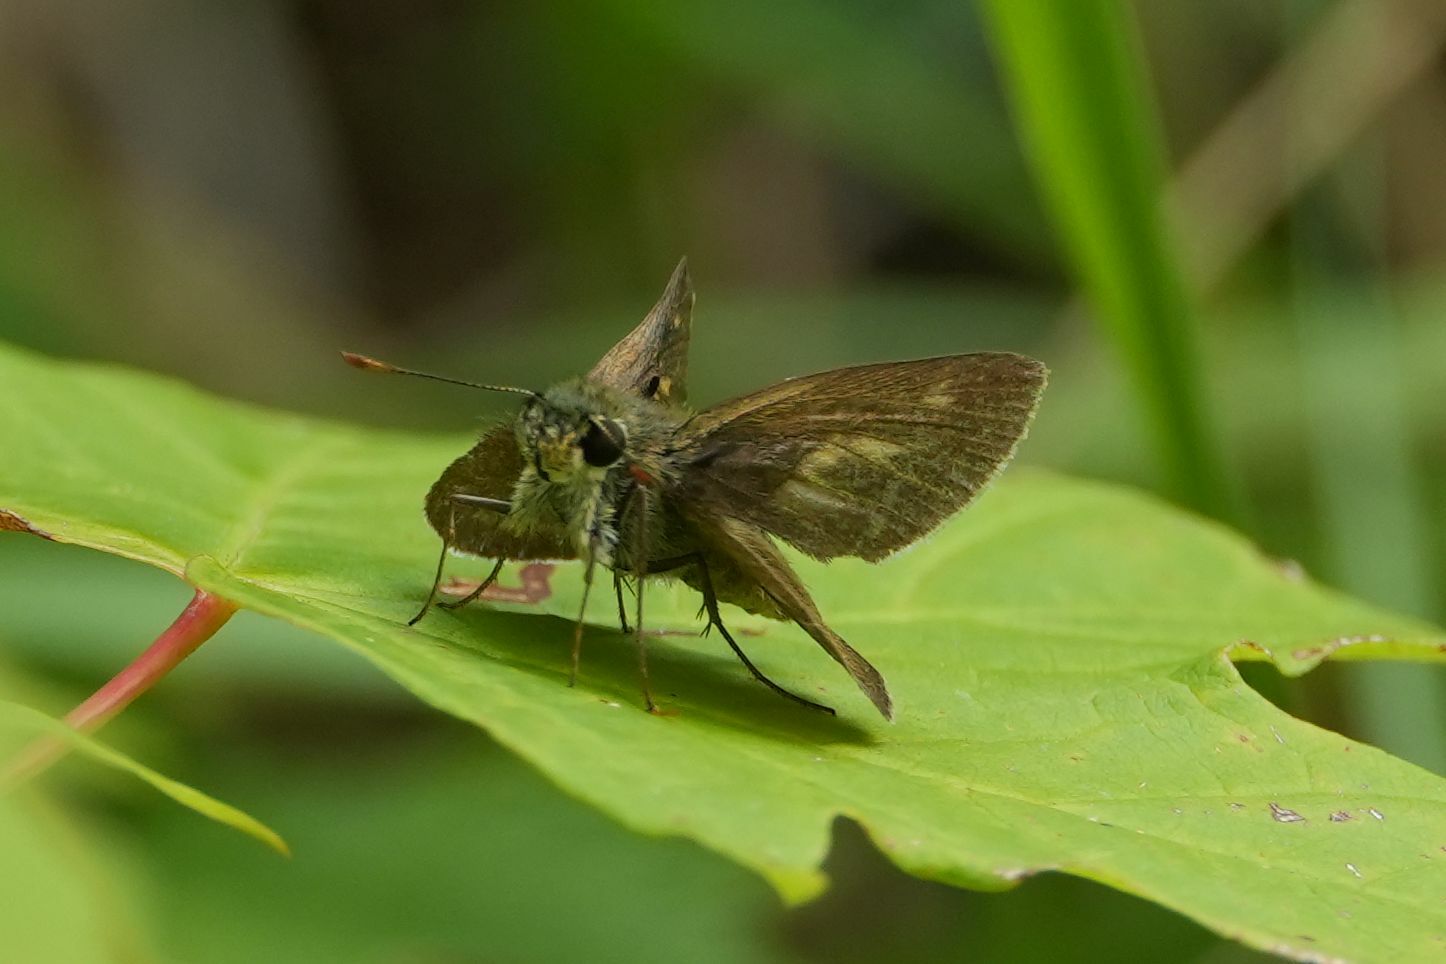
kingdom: Animalia
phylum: Arthropoda
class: Insecta
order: Lepidoptera
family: Hesperiidae
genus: Polites
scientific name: Polites egeremet
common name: Northern broken-dash
